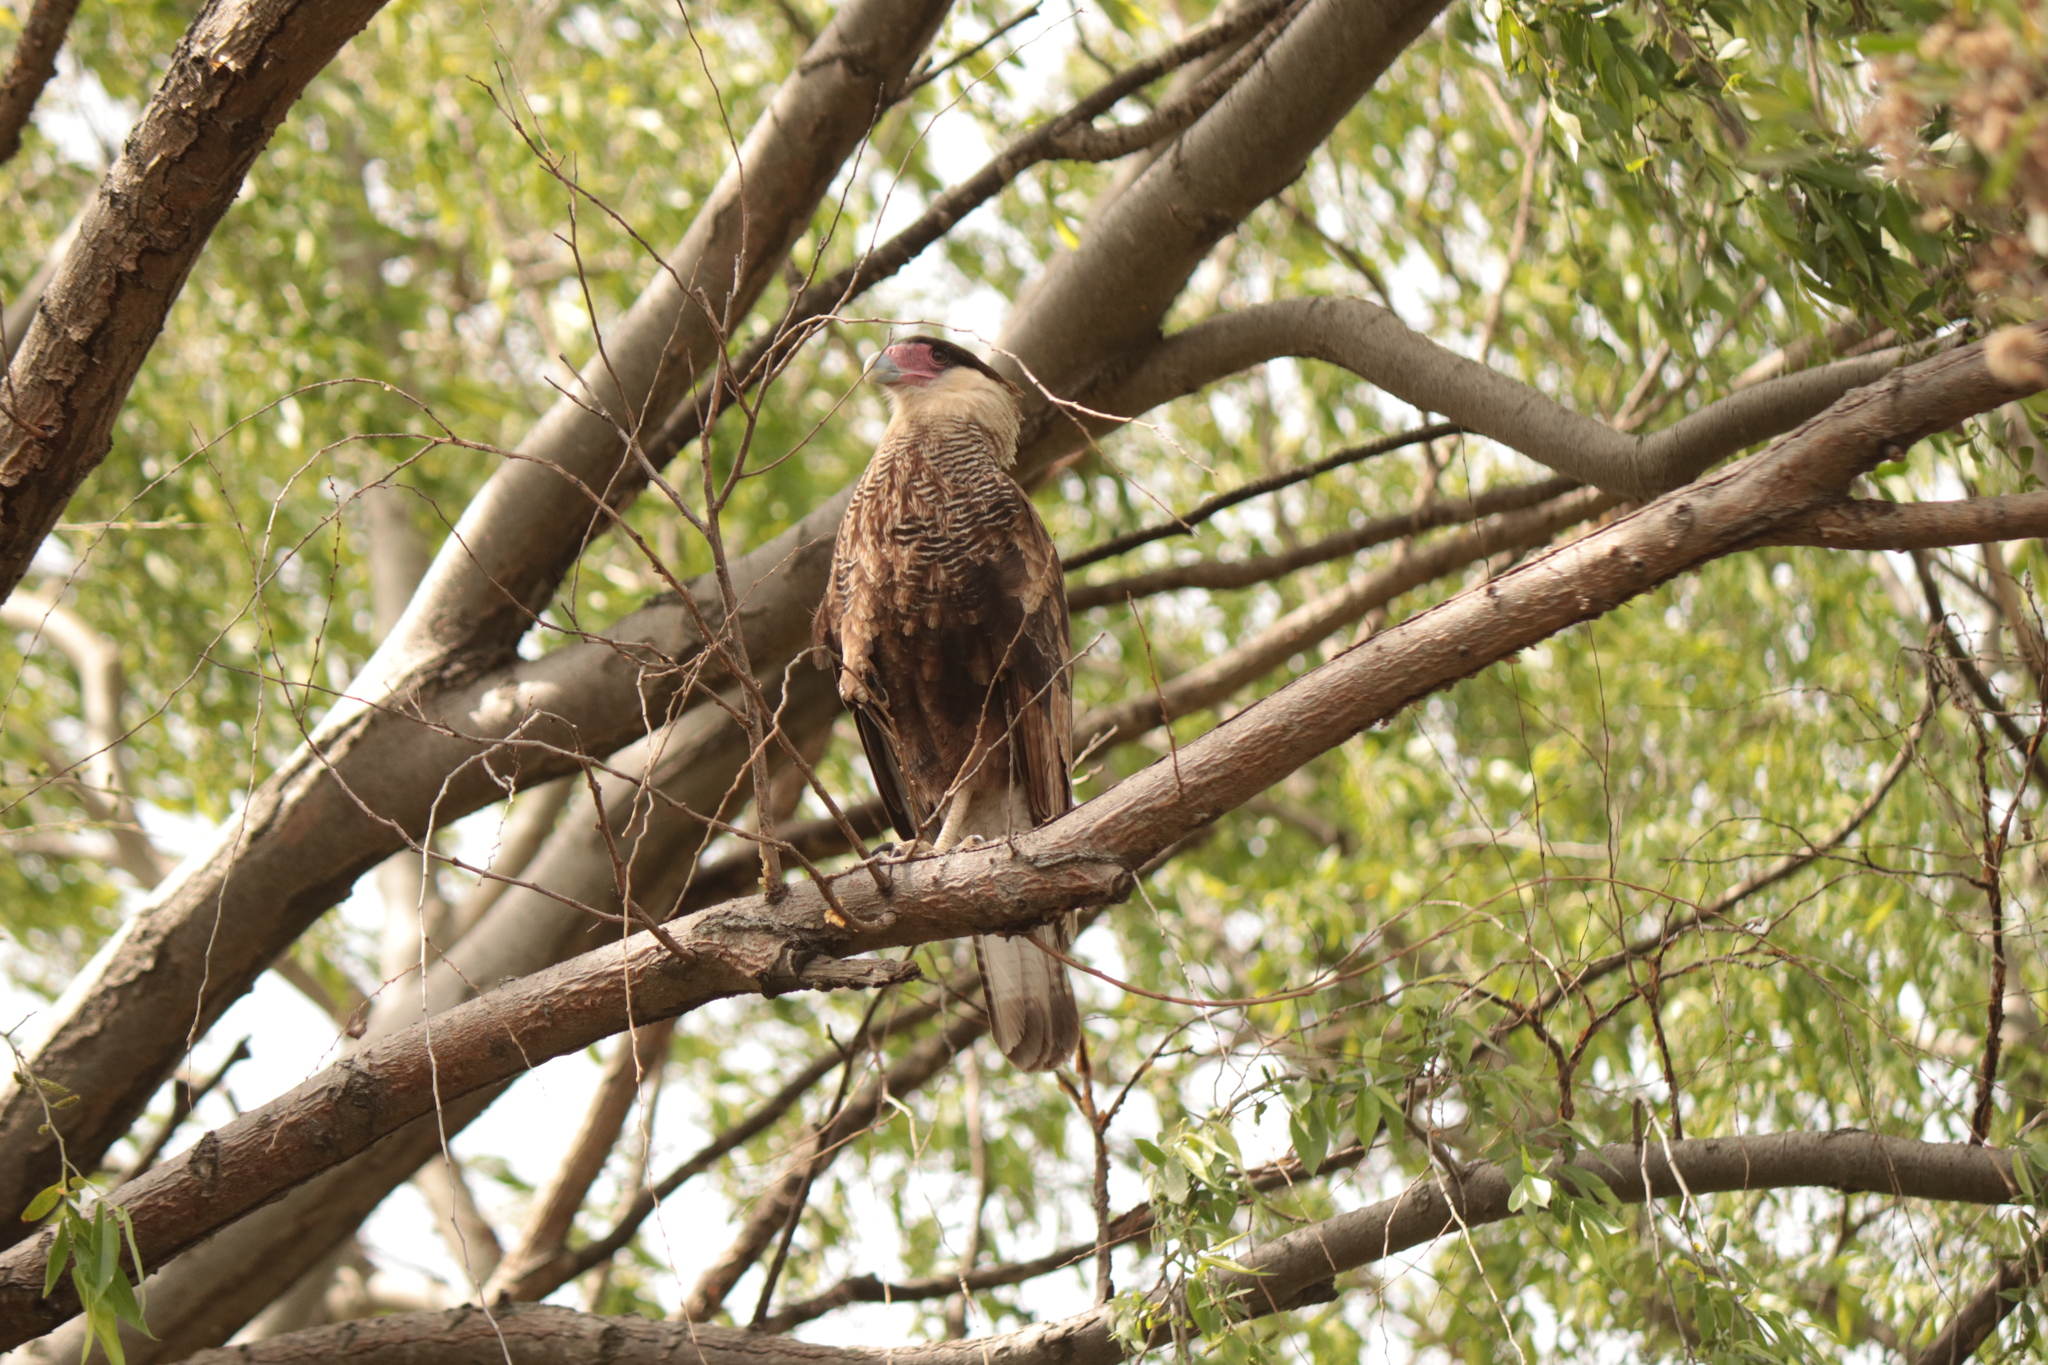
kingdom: Animalia
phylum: Chordata
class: Aves
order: Falconiformes
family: Falconidae
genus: Caracara
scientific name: Caracara plancus
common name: Southern caracara
